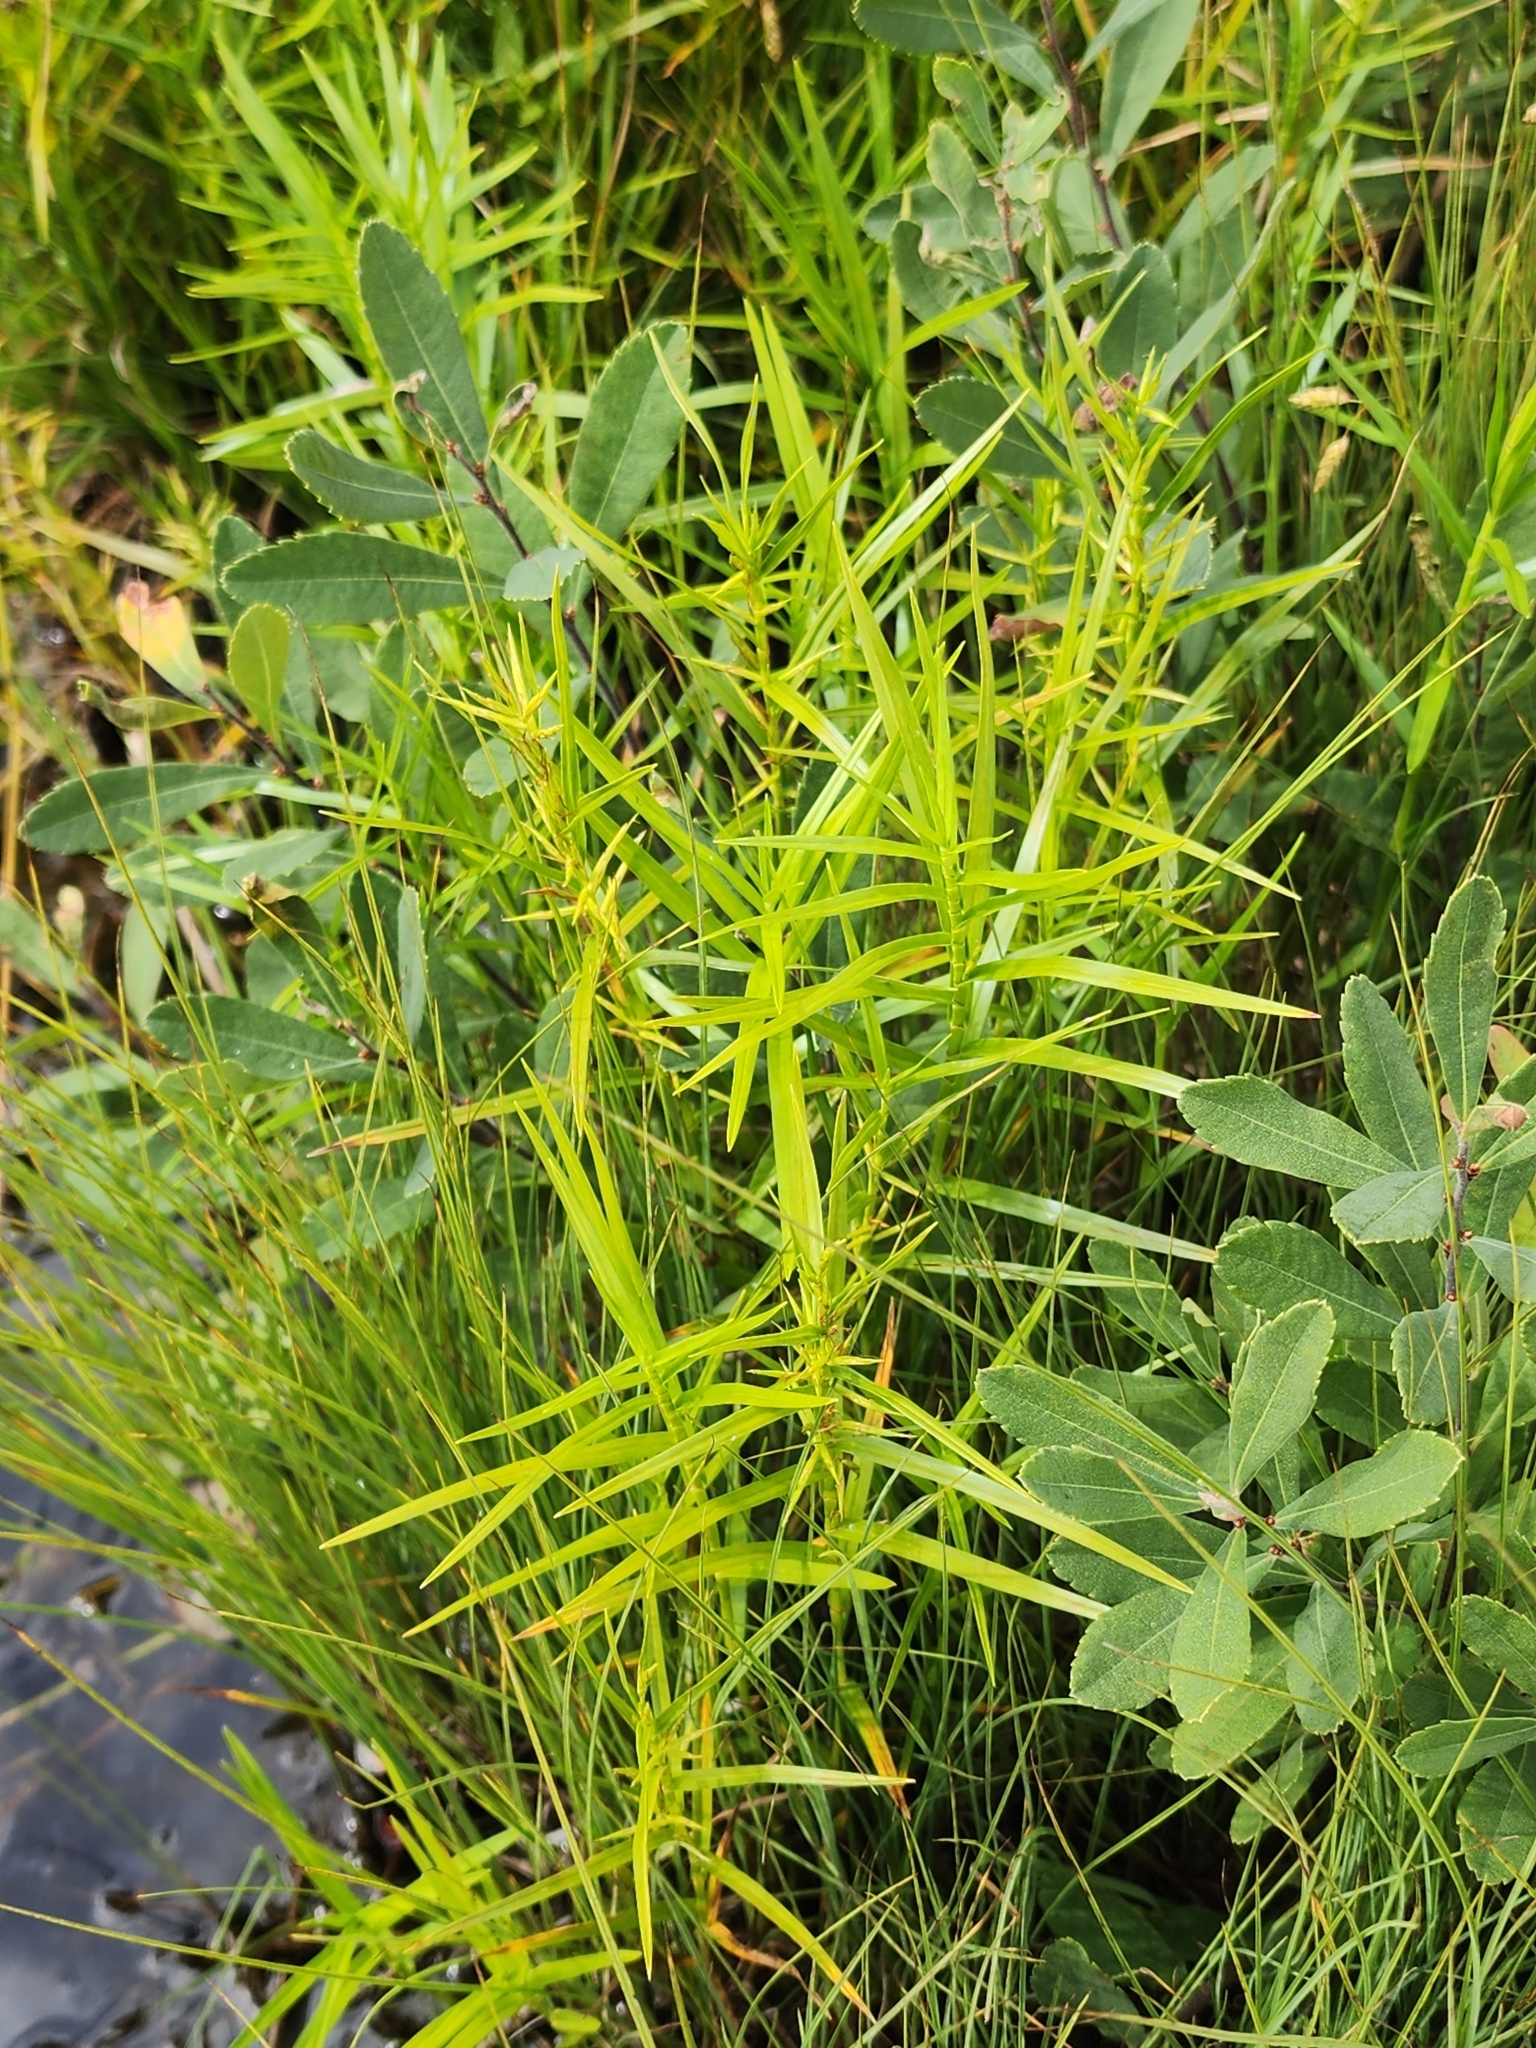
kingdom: Plantae
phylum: Tracheophyta
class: Liliopsida
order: Poales
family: Cyperaceae
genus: Dulichium
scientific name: Dulichium arundinaceum
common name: Three-way sedge
